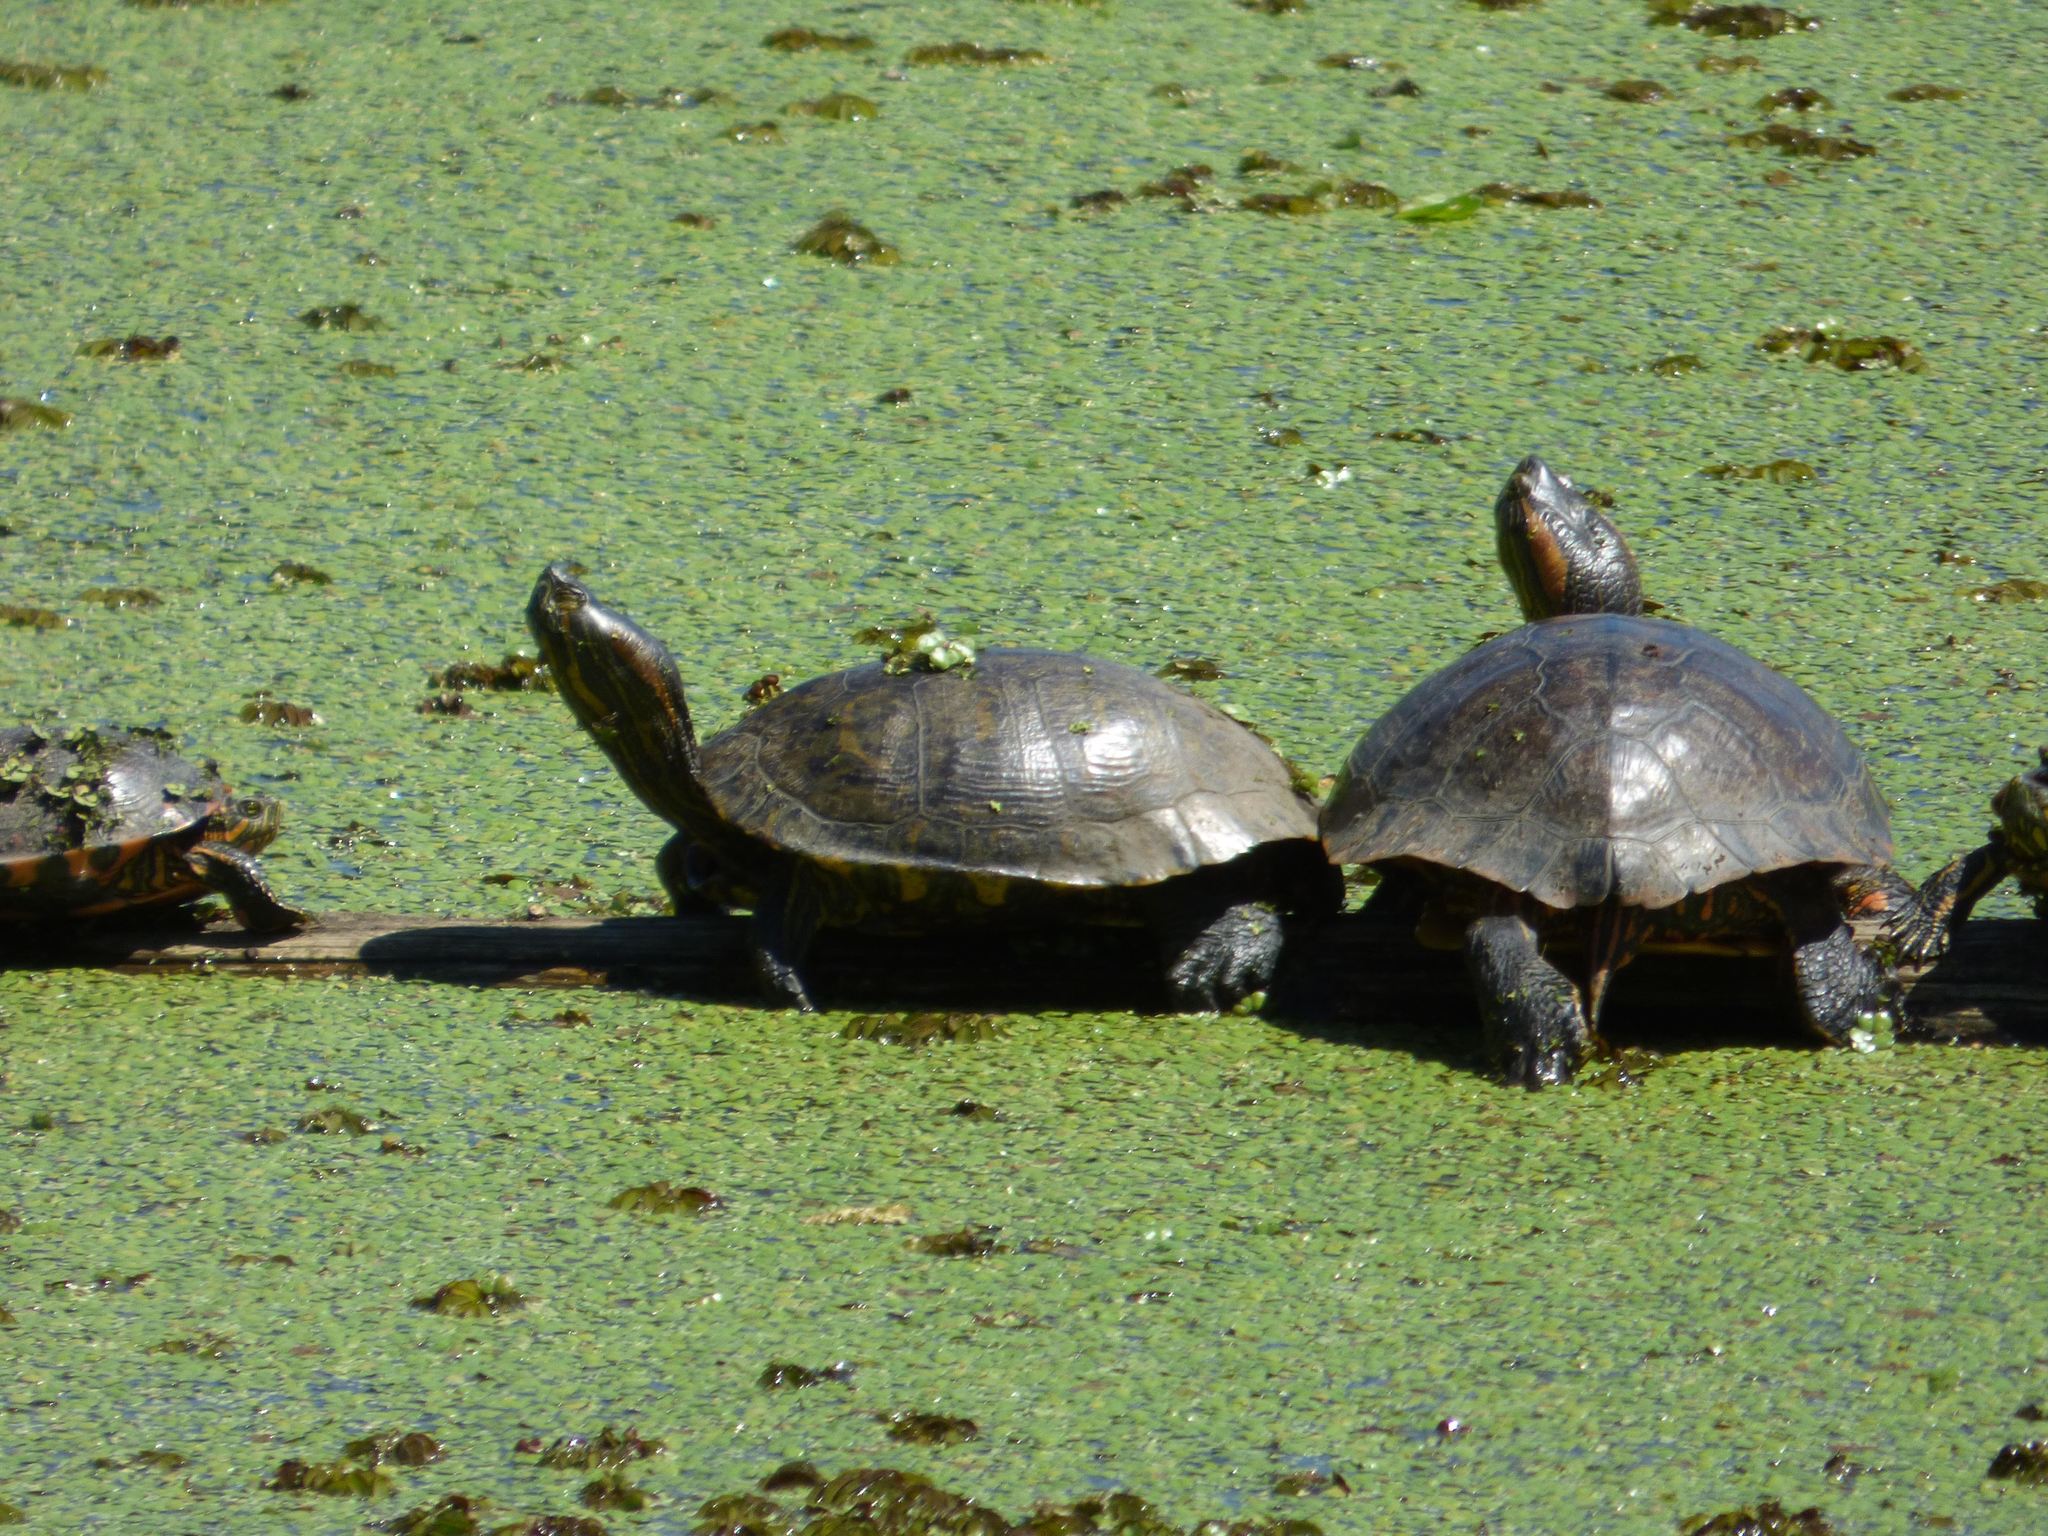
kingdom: Animalia
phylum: Chordata
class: Testudines
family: Emydidae
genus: Trachemys
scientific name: Trachemys dorbigni
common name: Black-bellied slider
